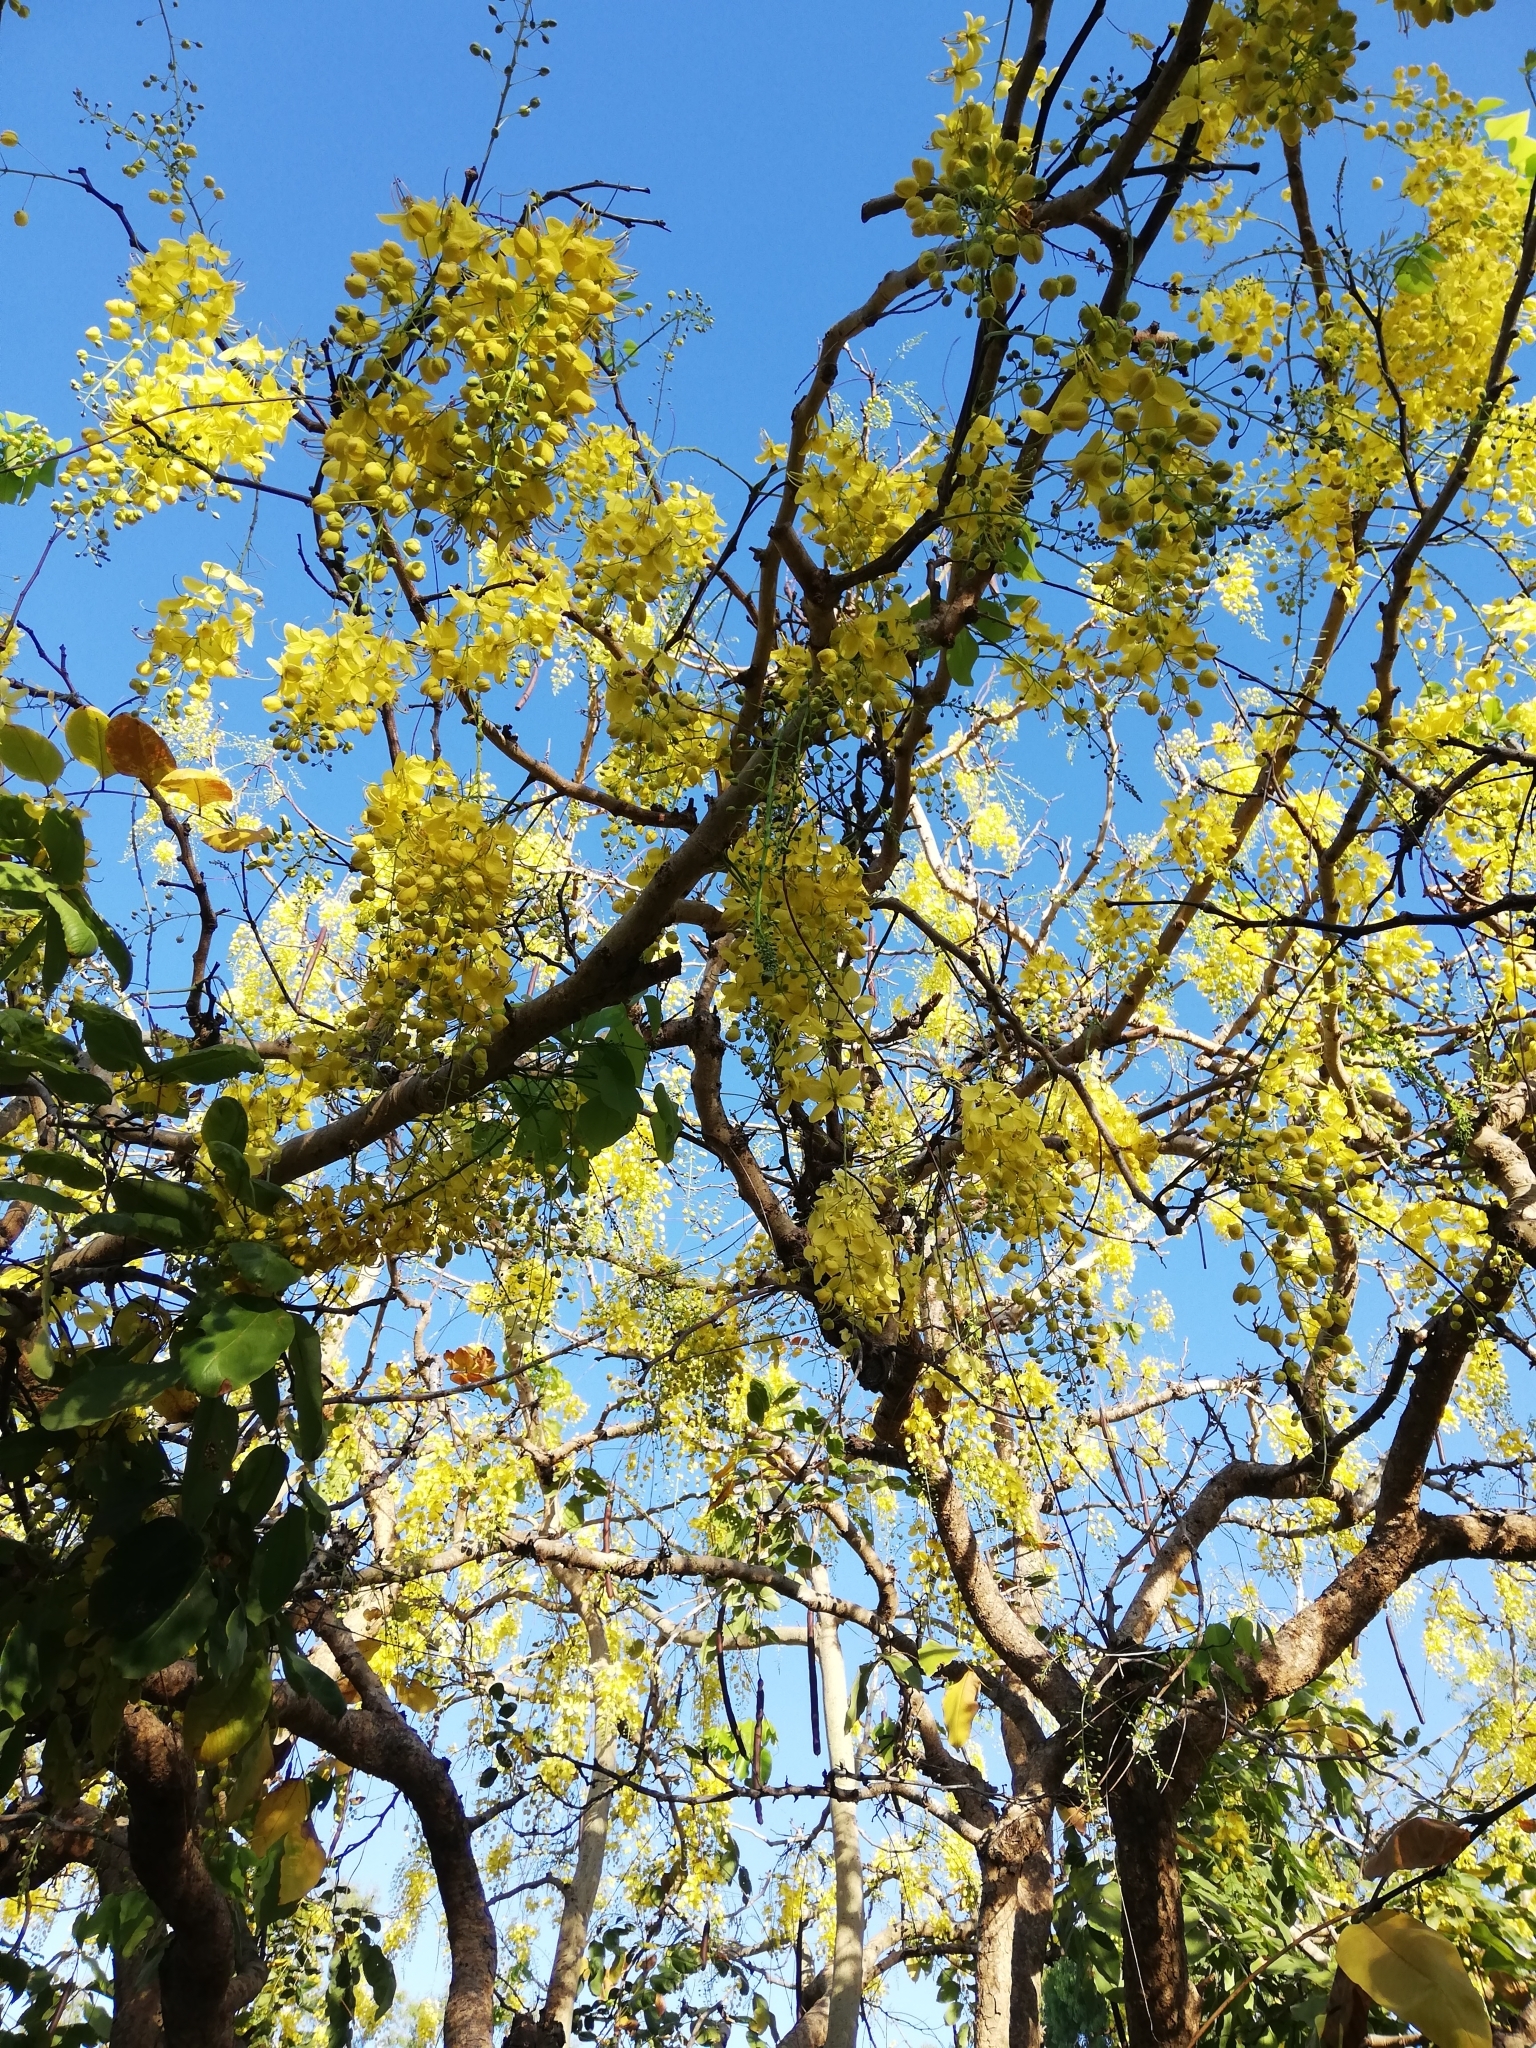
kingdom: Plantae
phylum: Tracheophyta
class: Magnoliopsida
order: Fabales
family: Fabaceae
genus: Cassia
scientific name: Cassia fistula
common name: Golden shower
